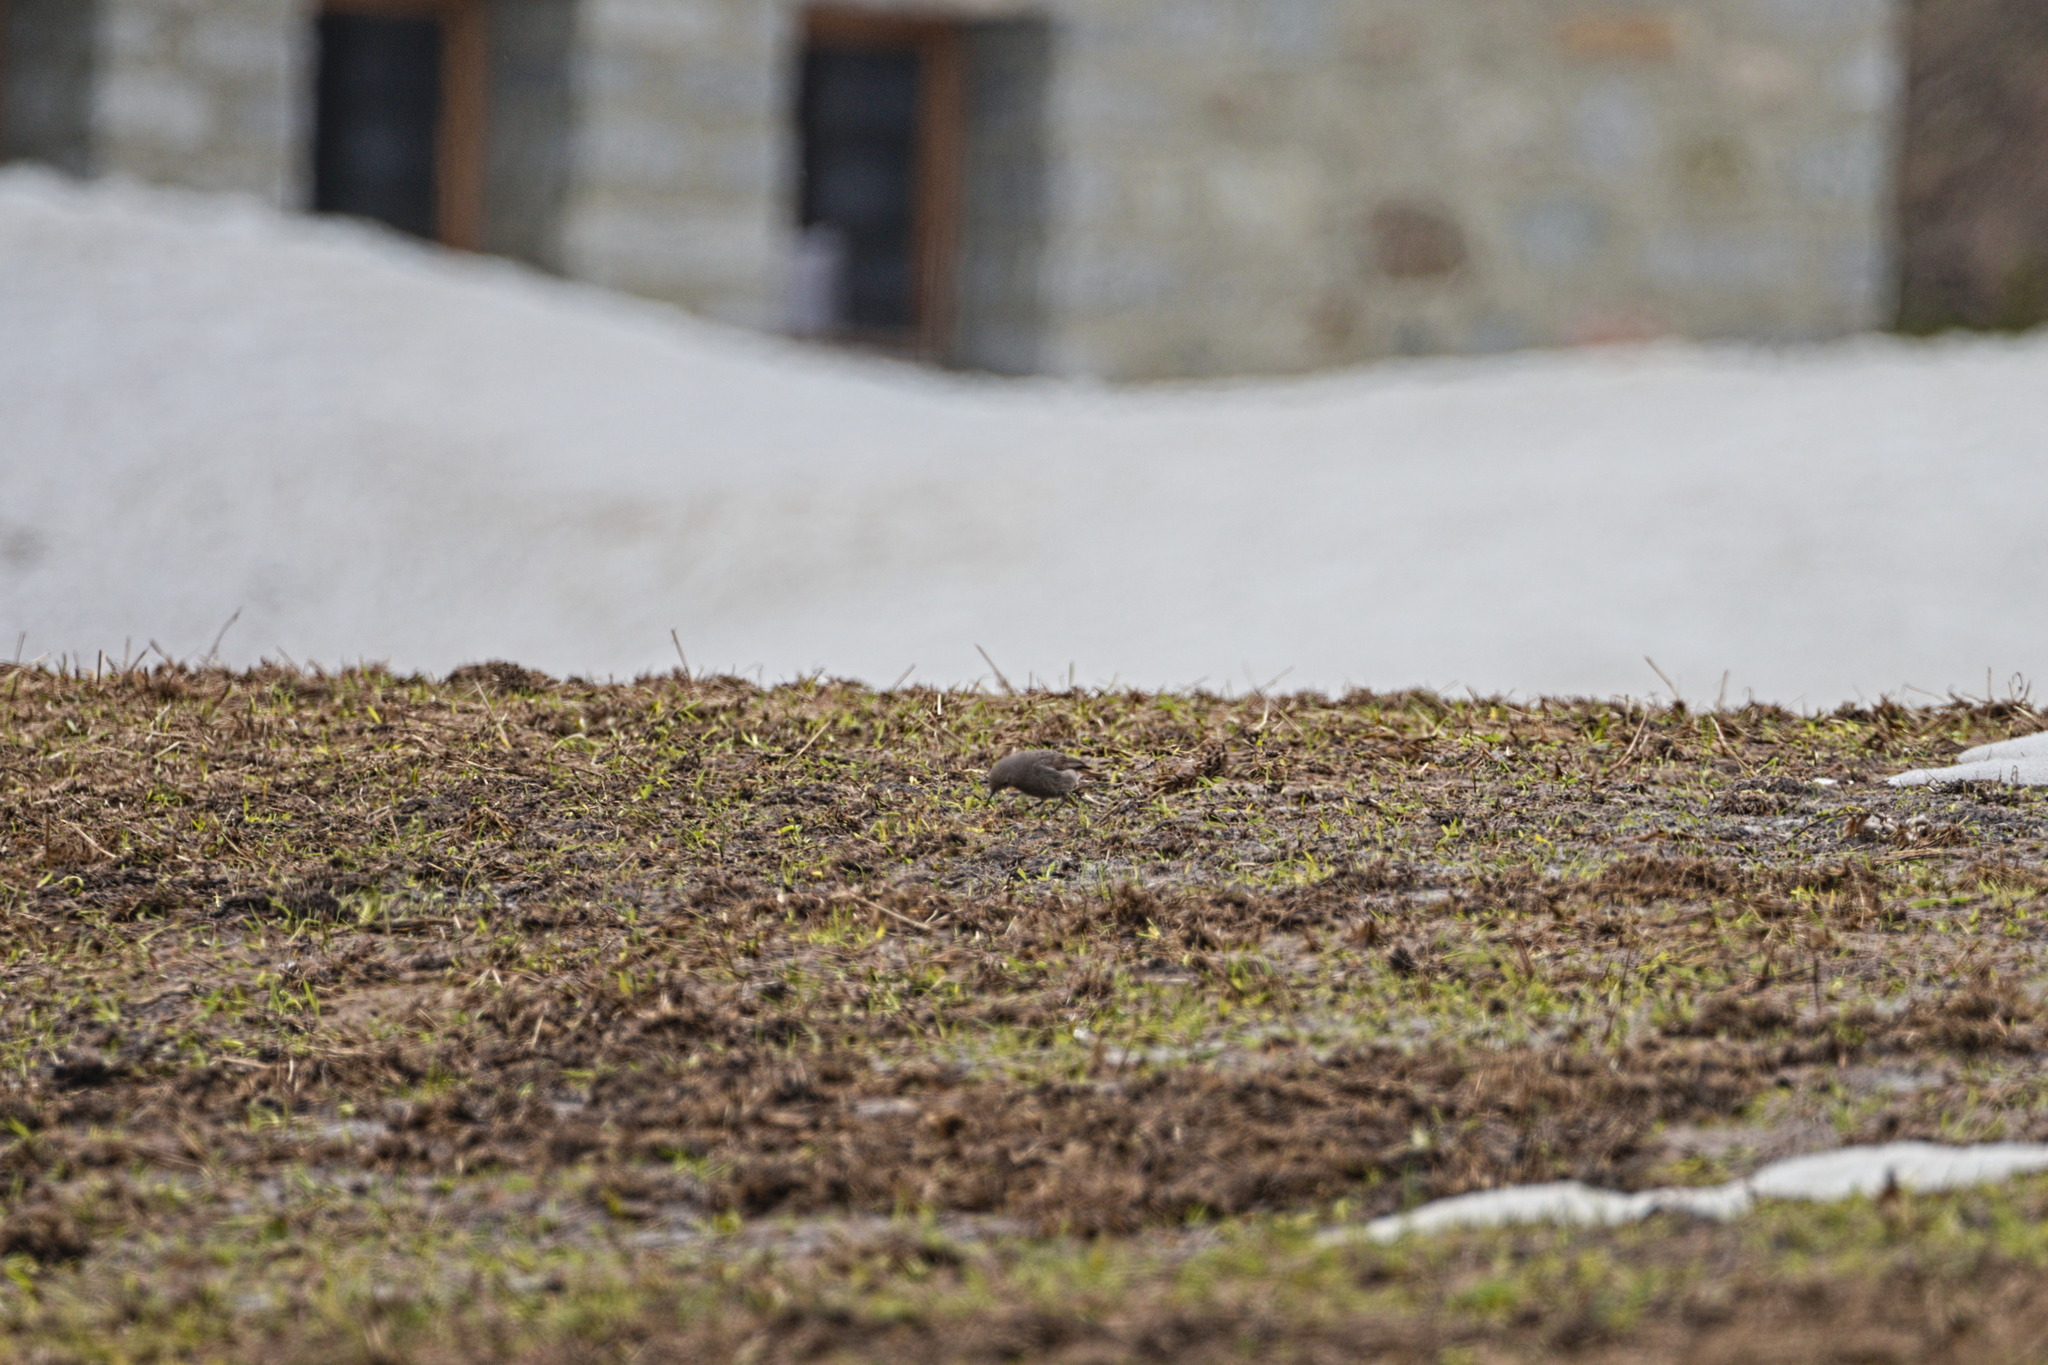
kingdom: Animalia
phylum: Chordata
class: Aves
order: Passeriformes
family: Muscicapidae
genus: Phoenicurus
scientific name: Phoenicurus ochruros
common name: Black redstart
